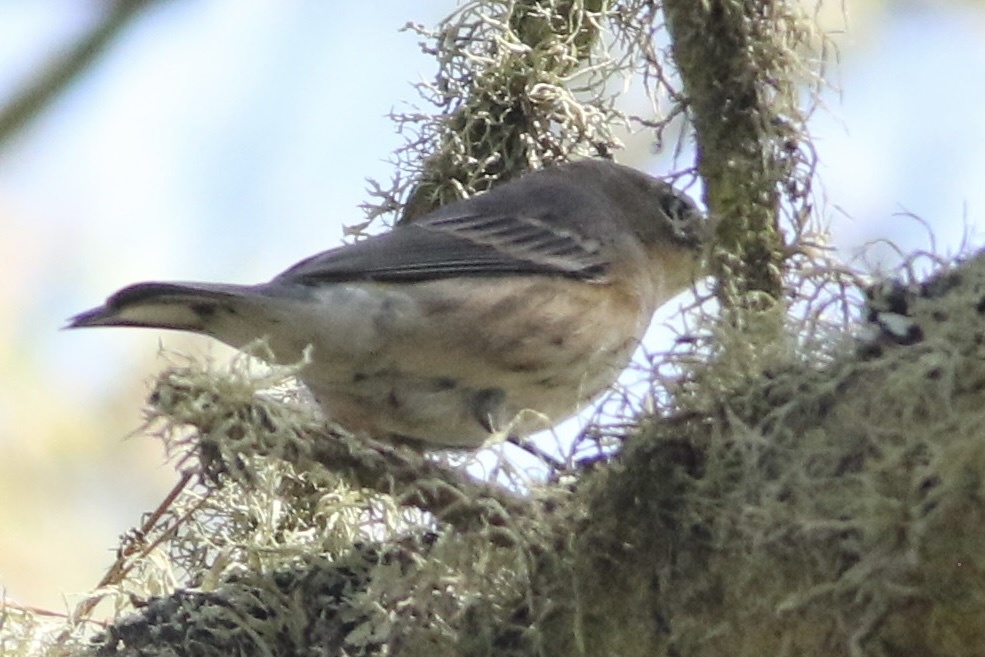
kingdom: Animalia
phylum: Chordata
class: Aves
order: Passeriformes
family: Parulidae
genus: Setophaga
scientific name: Setophaga coronata
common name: Myrtle warbler
